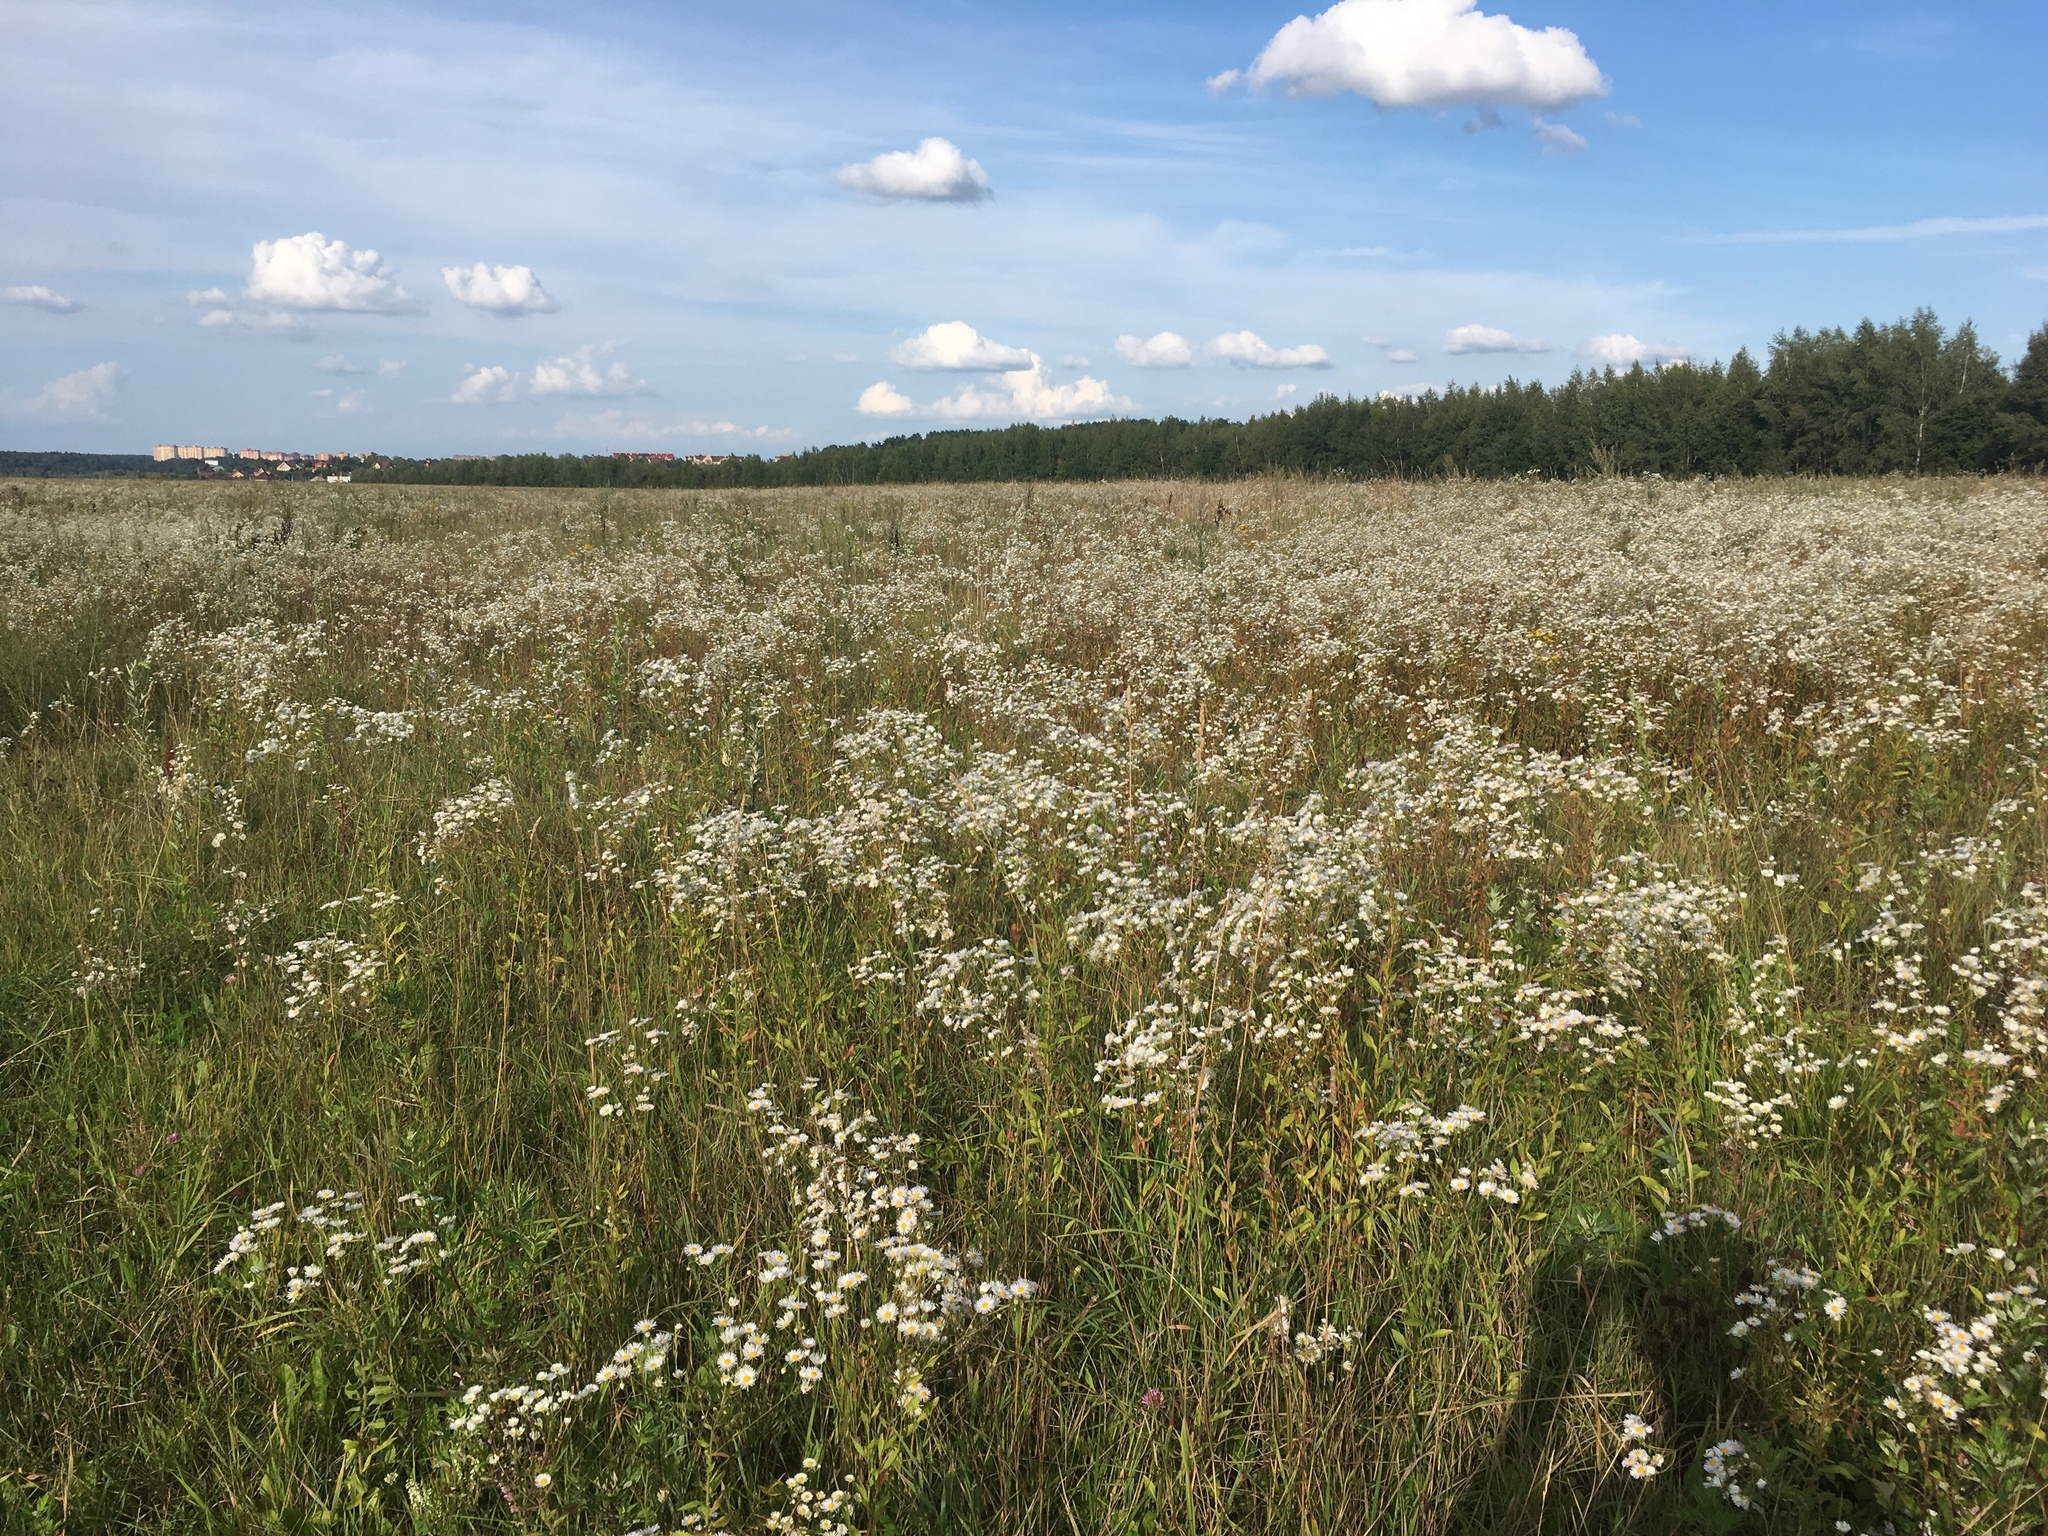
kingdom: Plantae
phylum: Tracheophyta
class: Magnoliopsida
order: Asterales
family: Asteraceae
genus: Erigeron
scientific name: Erigeron annuus
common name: Tall fleabane
